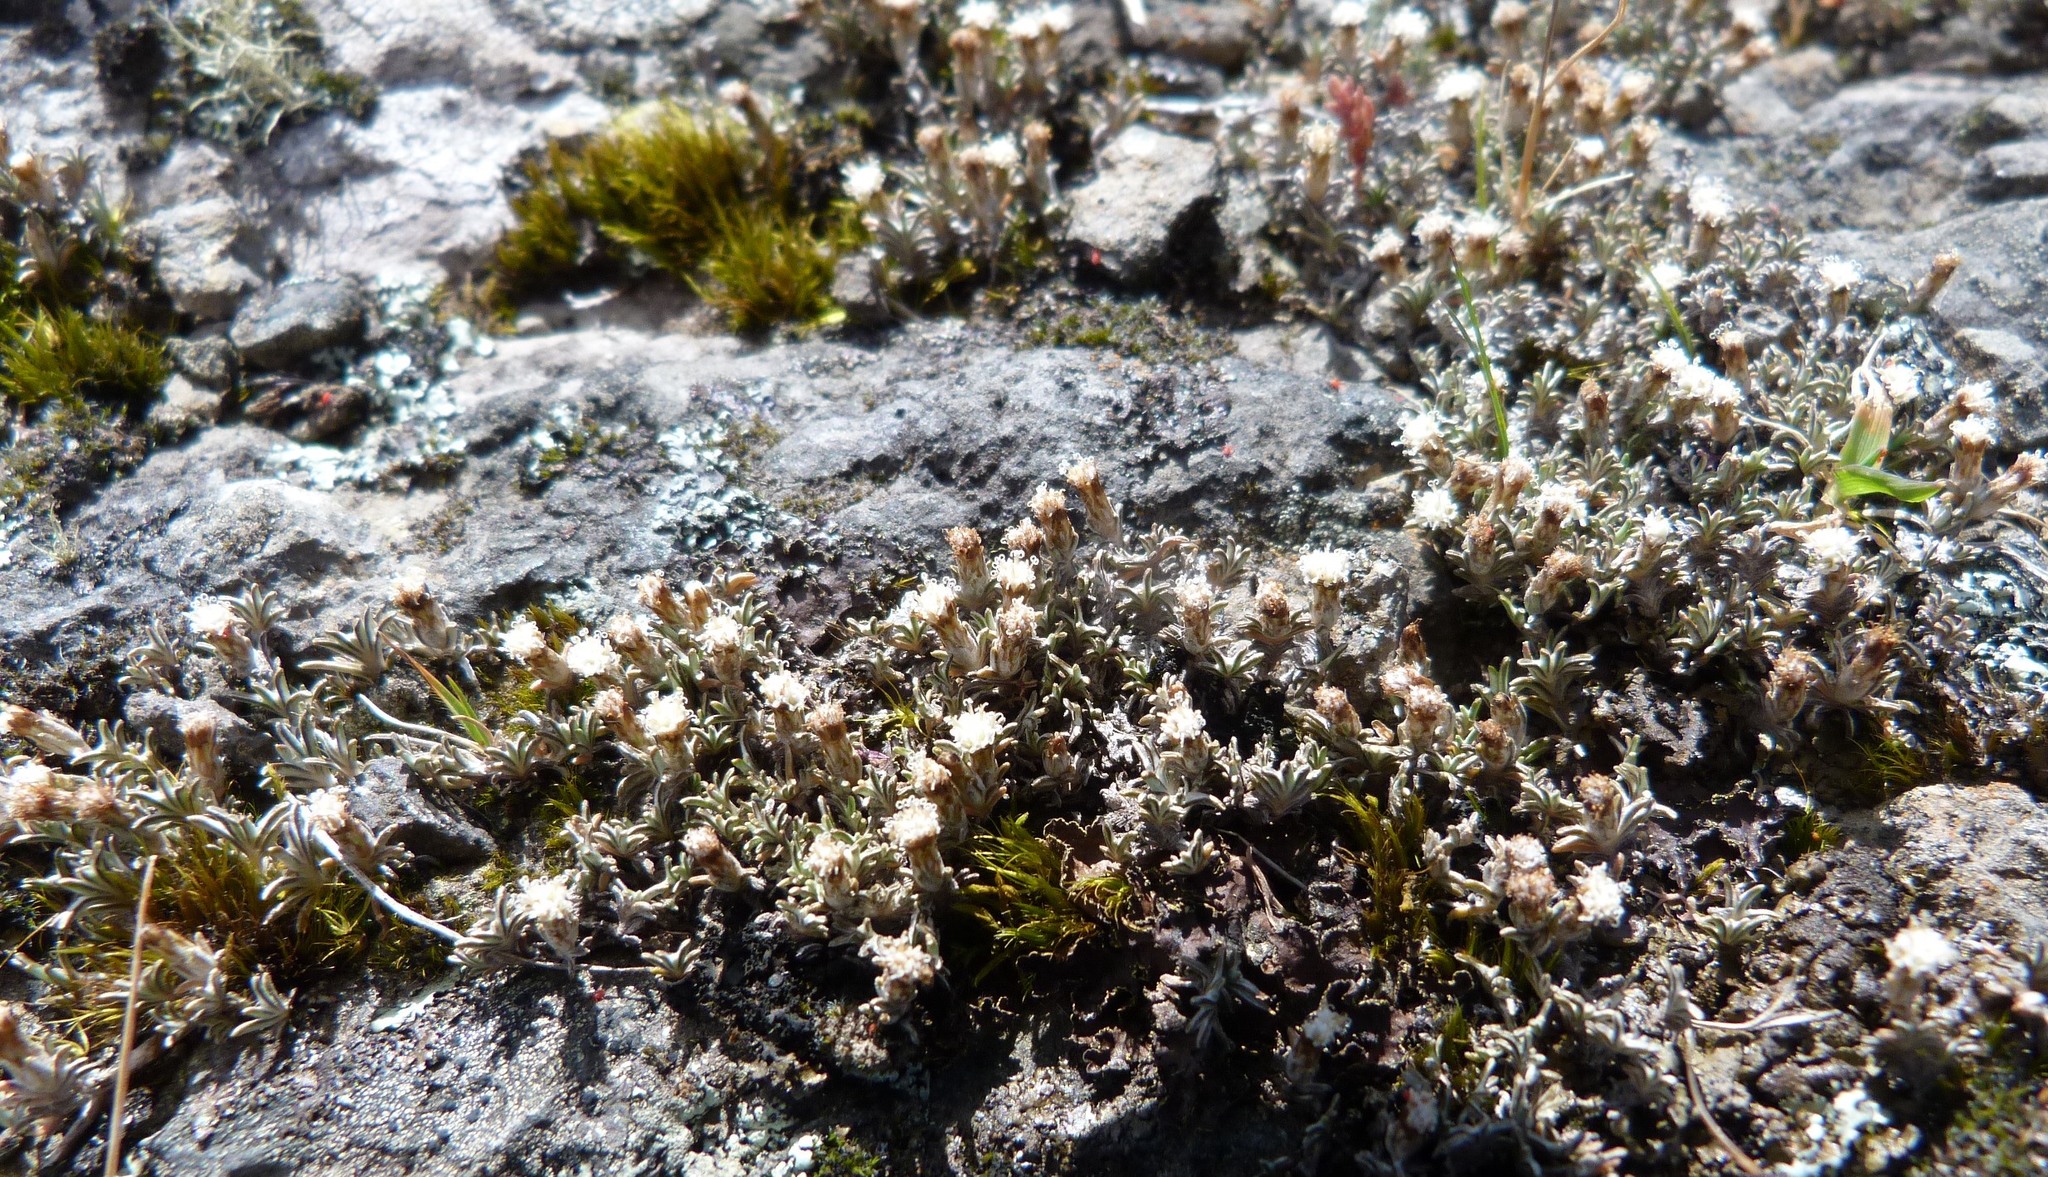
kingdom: Plantae
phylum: Tracheophyta
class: Magnoliopsida
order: Asterales
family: Asteraceae
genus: Raoulia
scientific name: Raoulia monroi
